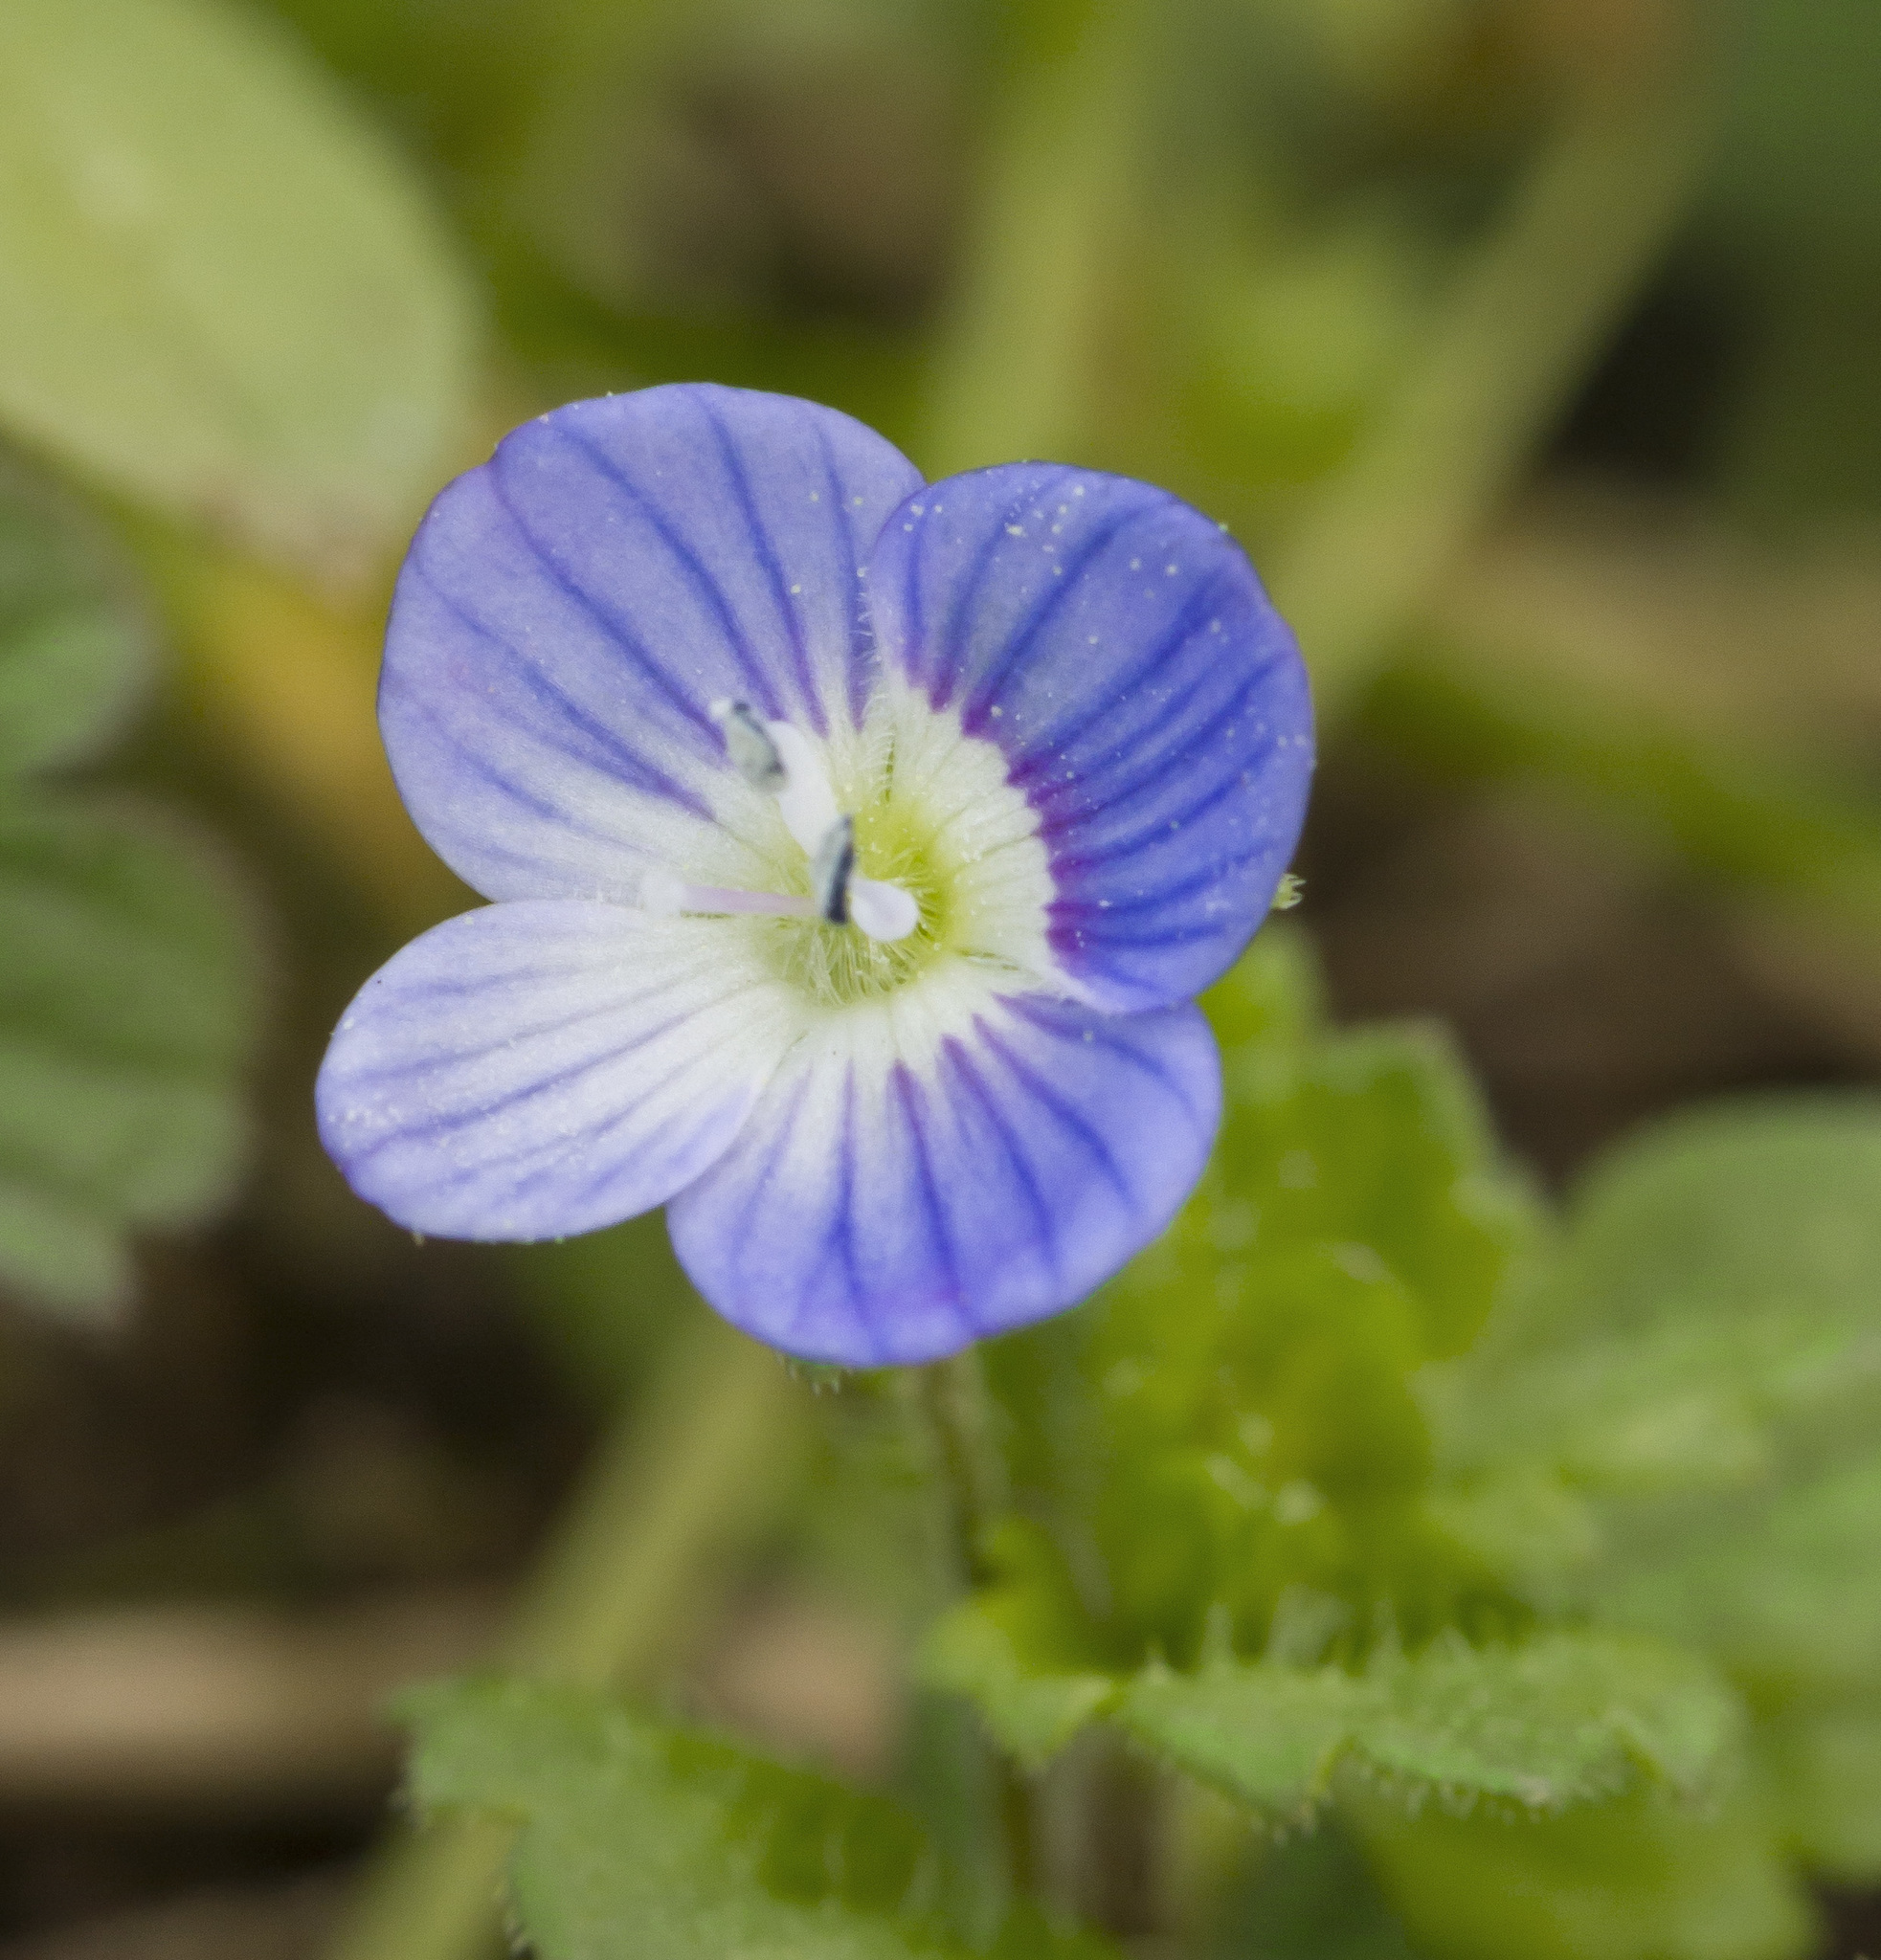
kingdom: Plantae
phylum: Tracheophyta
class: Magnoliopsida
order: Lamiales
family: Plantaginaceae
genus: Veronica
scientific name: Veronica persica
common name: Common field-speedwell
